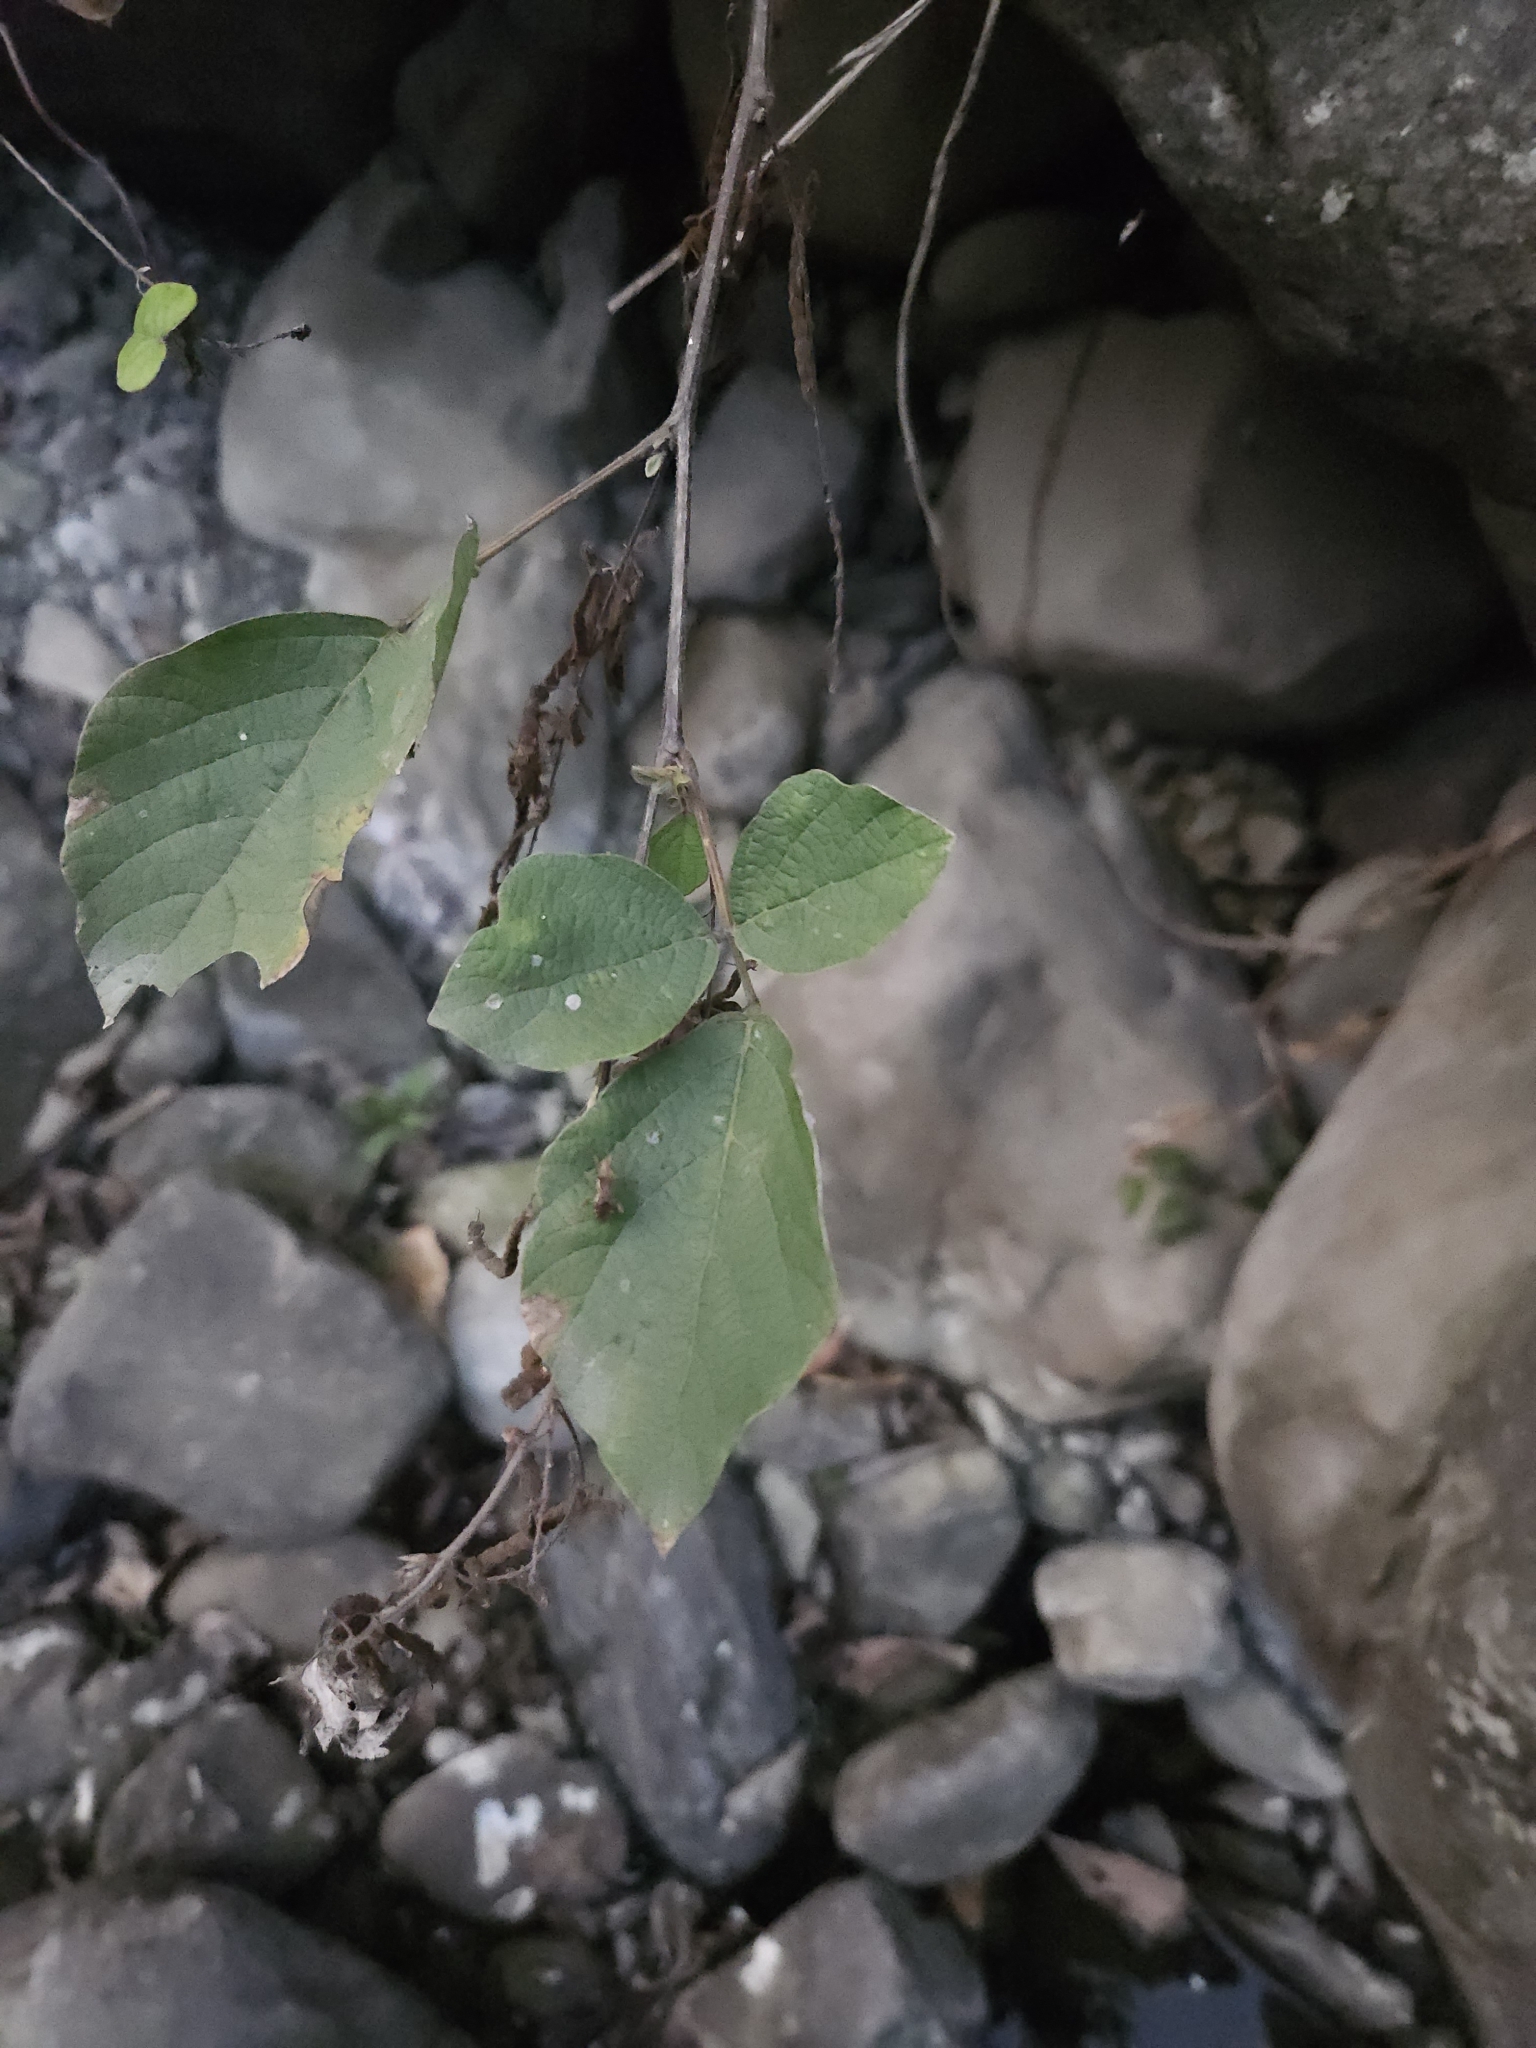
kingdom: Plantae
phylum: Tracheophyta
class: Magnoliopsida
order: Fabales
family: Fabaceae
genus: Puhuaea
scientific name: Puhuaea sequax
